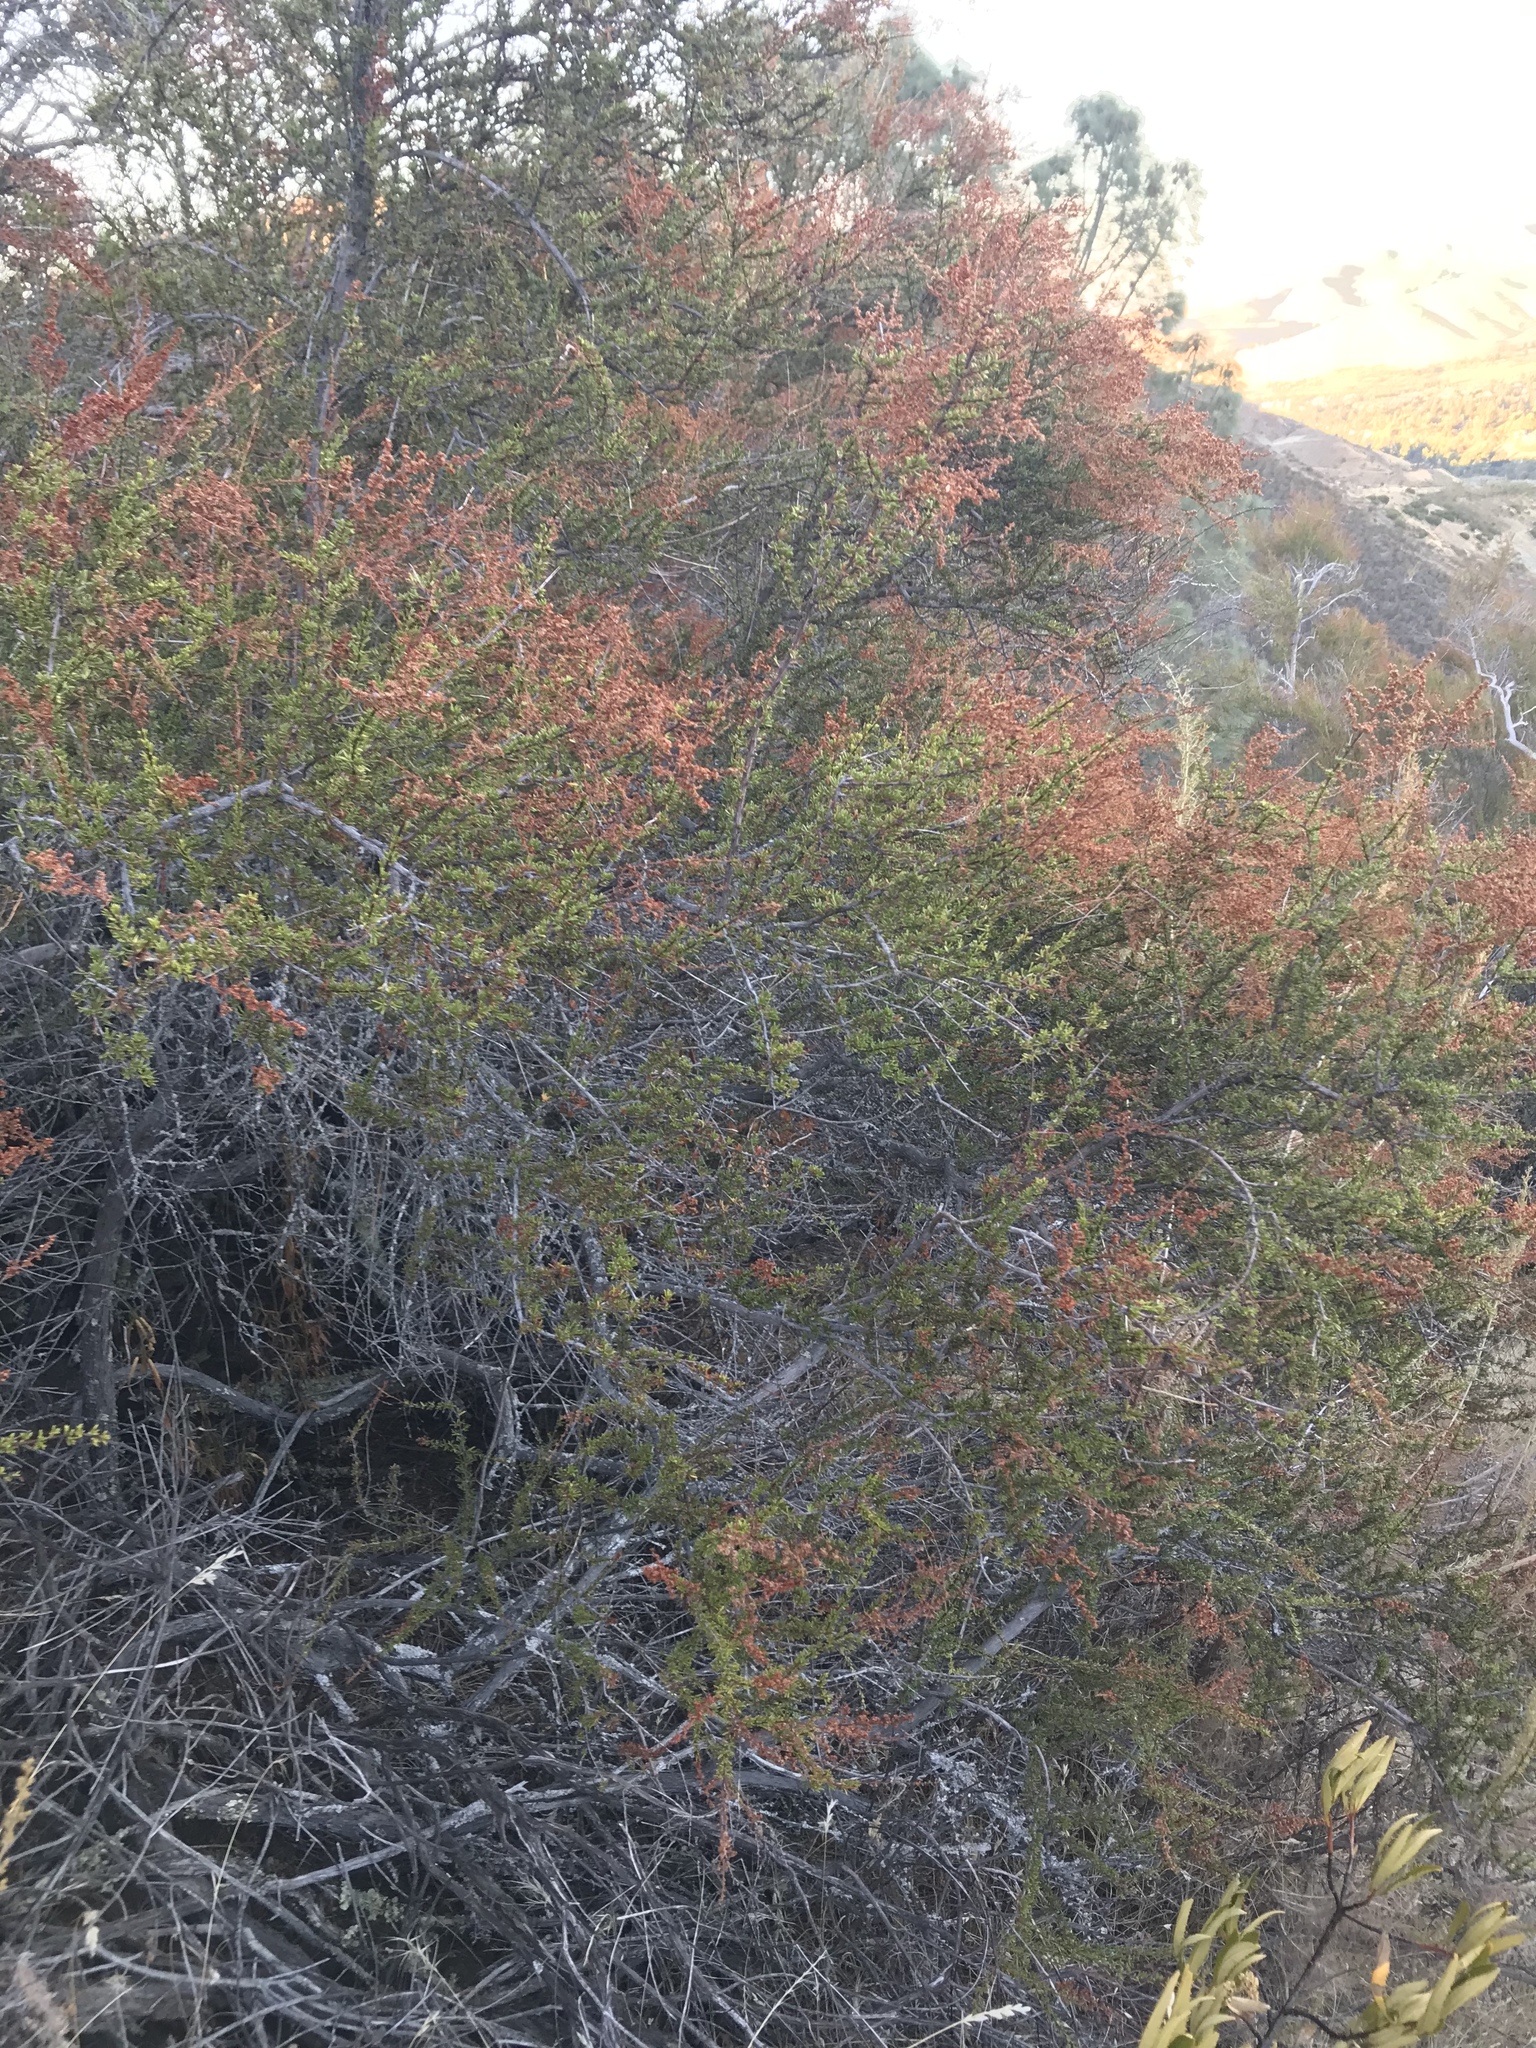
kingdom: Plantae
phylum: Tracheophyta
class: Magnoliopsida
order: Rosales
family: Rosaceae
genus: Adenostoma
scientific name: Adenostoma fasciculatum
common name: Chamise
